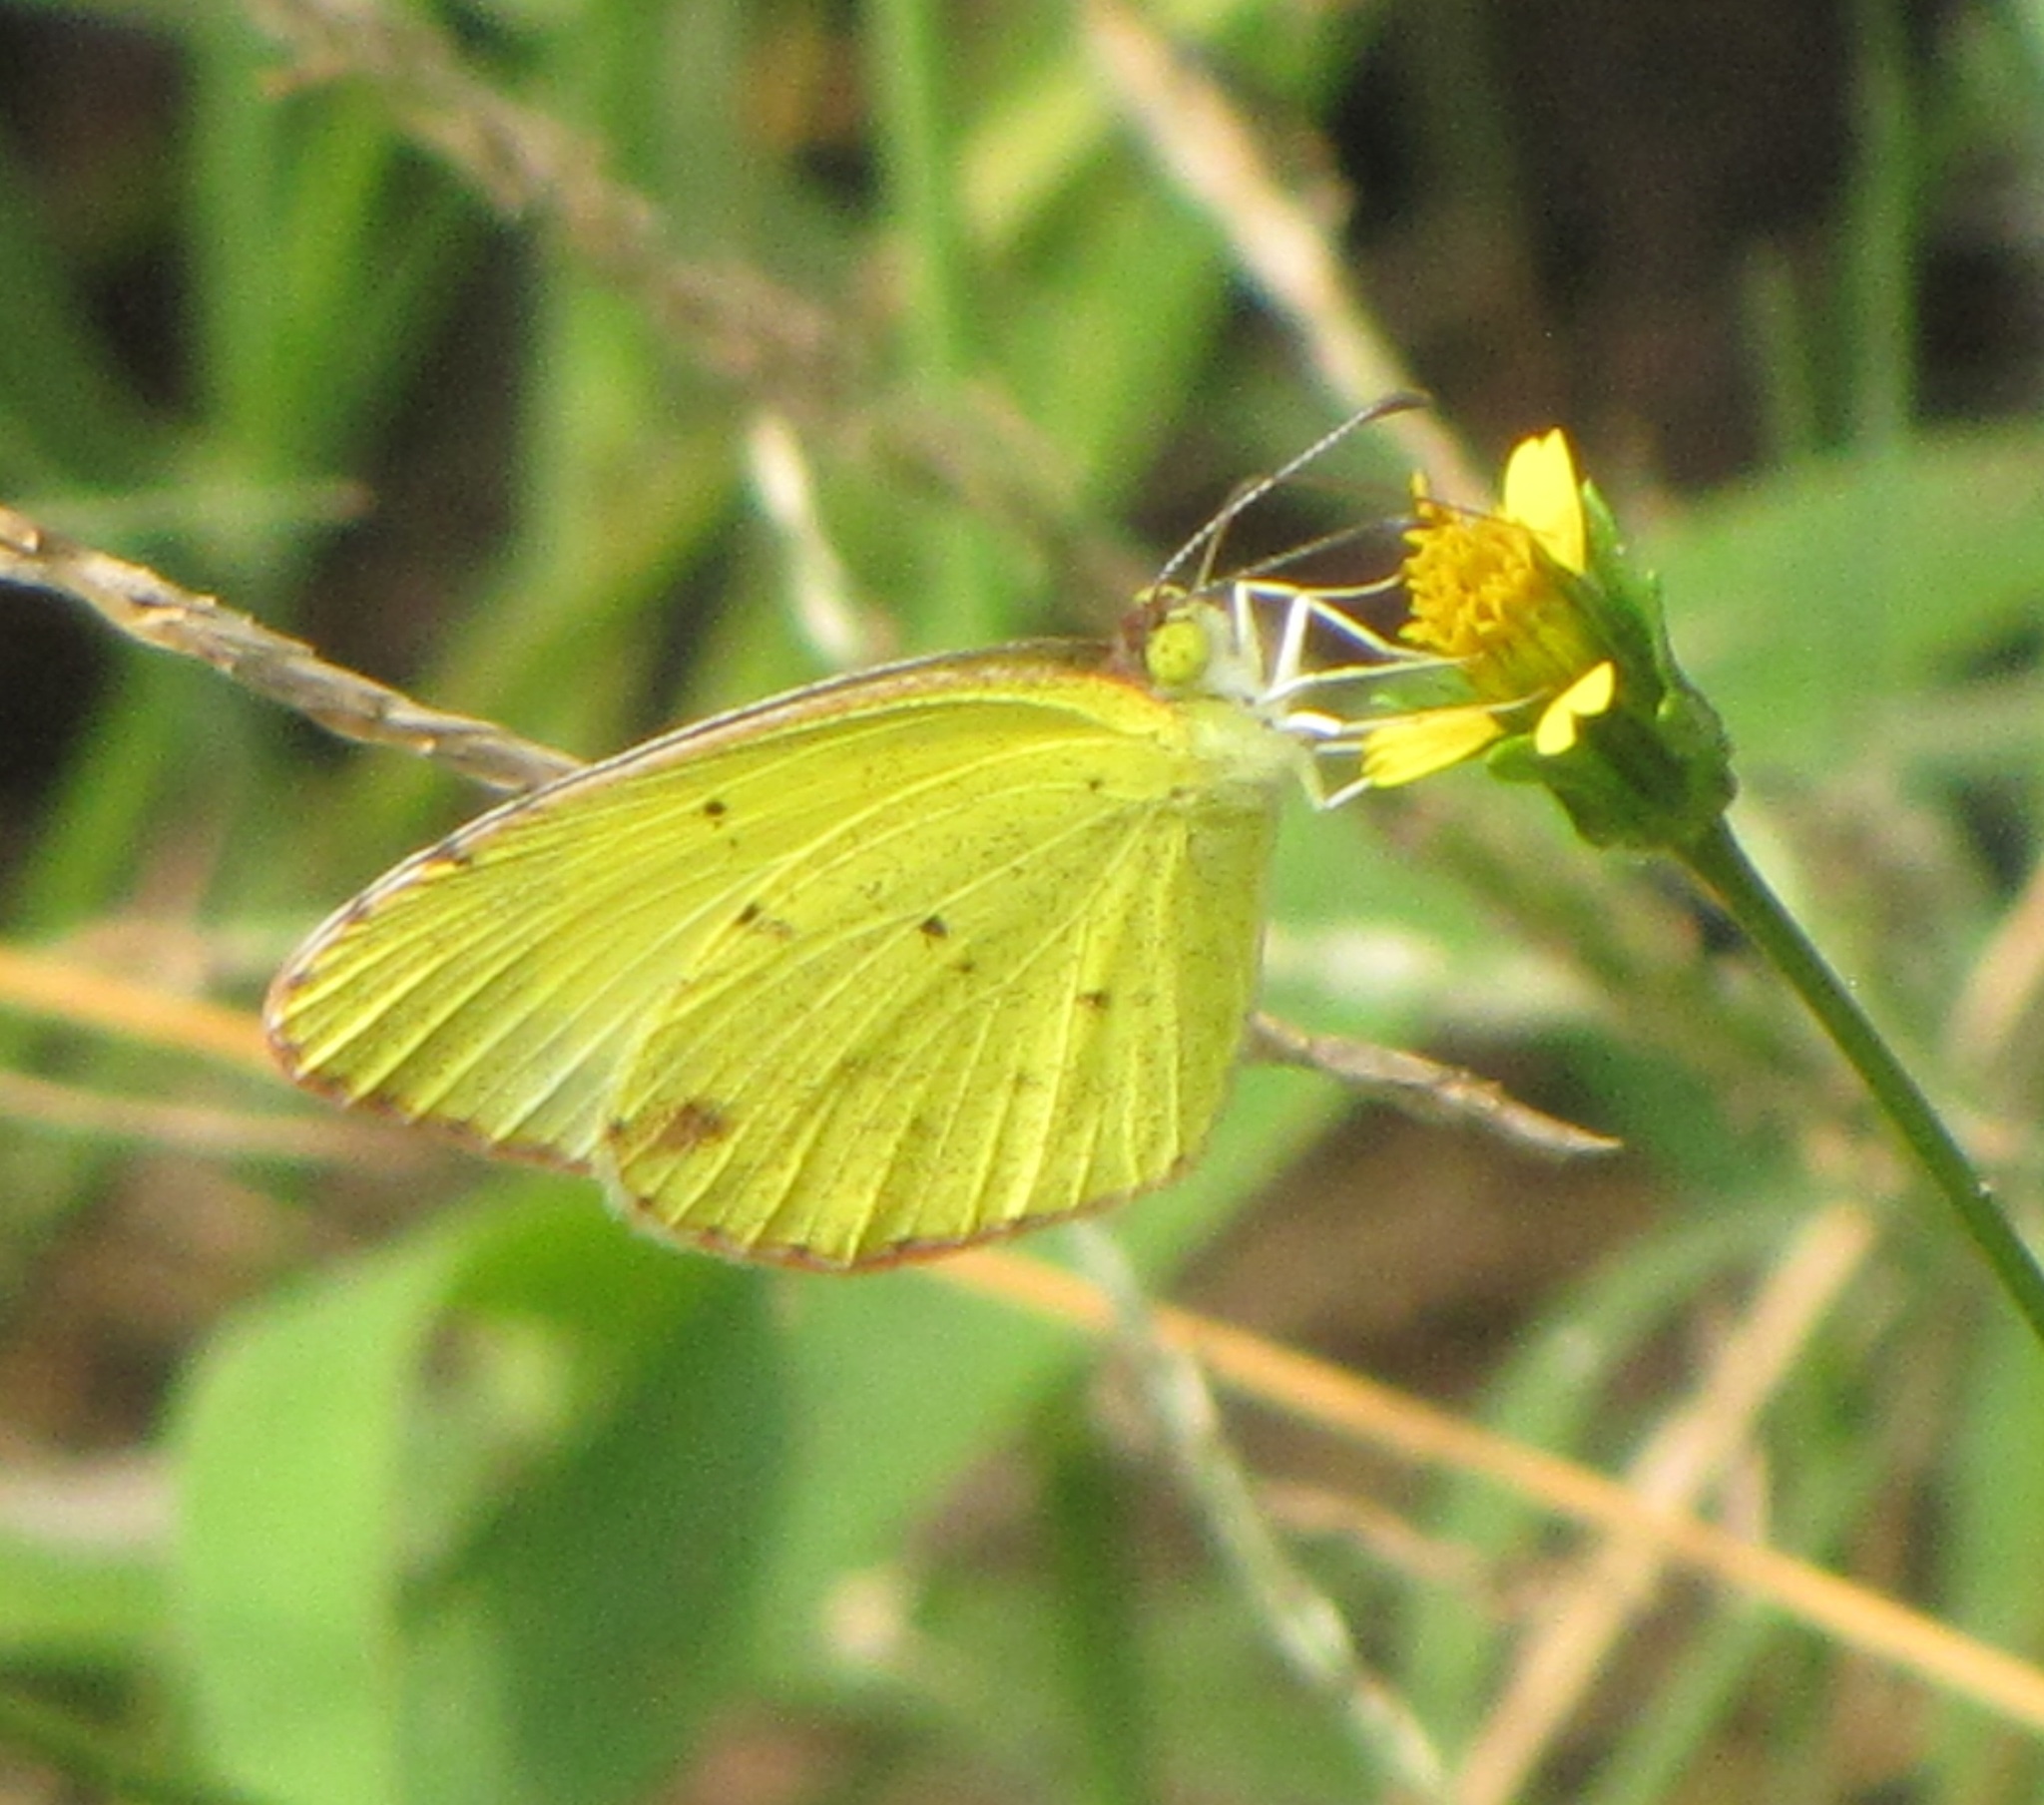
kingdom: Animalia
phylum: Arthropoda
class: Insecta
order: Lepidoptera
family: Pieridae
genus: Pyrisitia
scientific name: Pyrisitia lisa
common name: Little yellow
